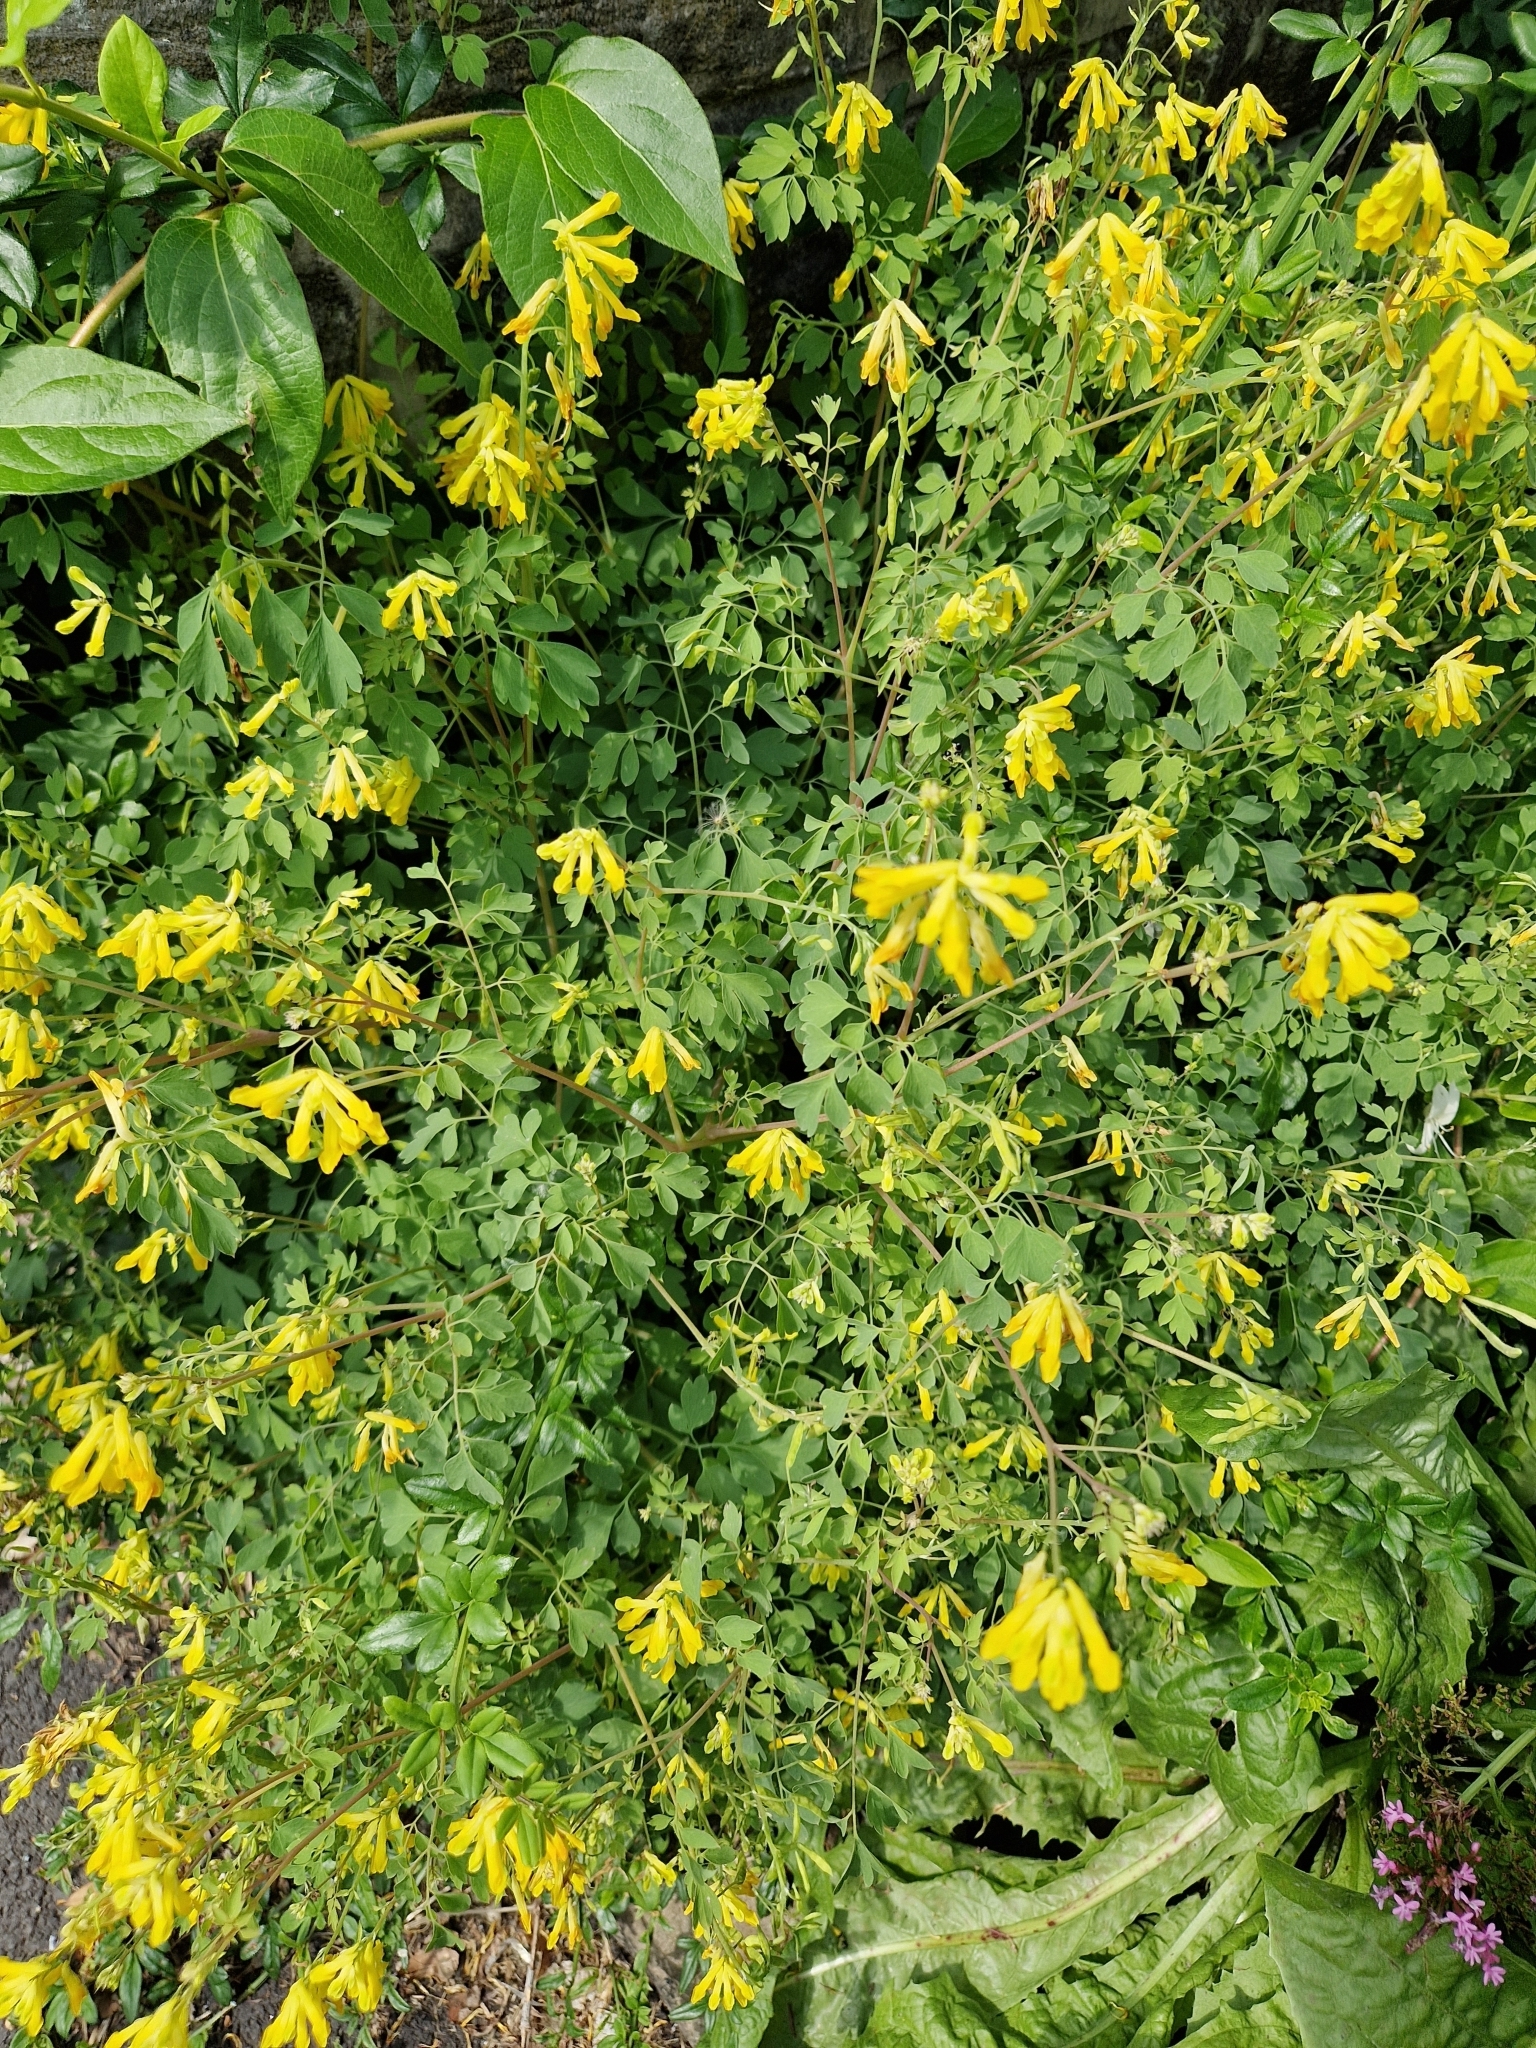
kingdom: Plantae
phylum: Tracheophyta
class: Magnoliopsida
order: Ranunculales
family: Papaveraceae
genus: Pseudofumaria
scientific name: Pseudofumaria lutea
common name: Yellow corydalis
